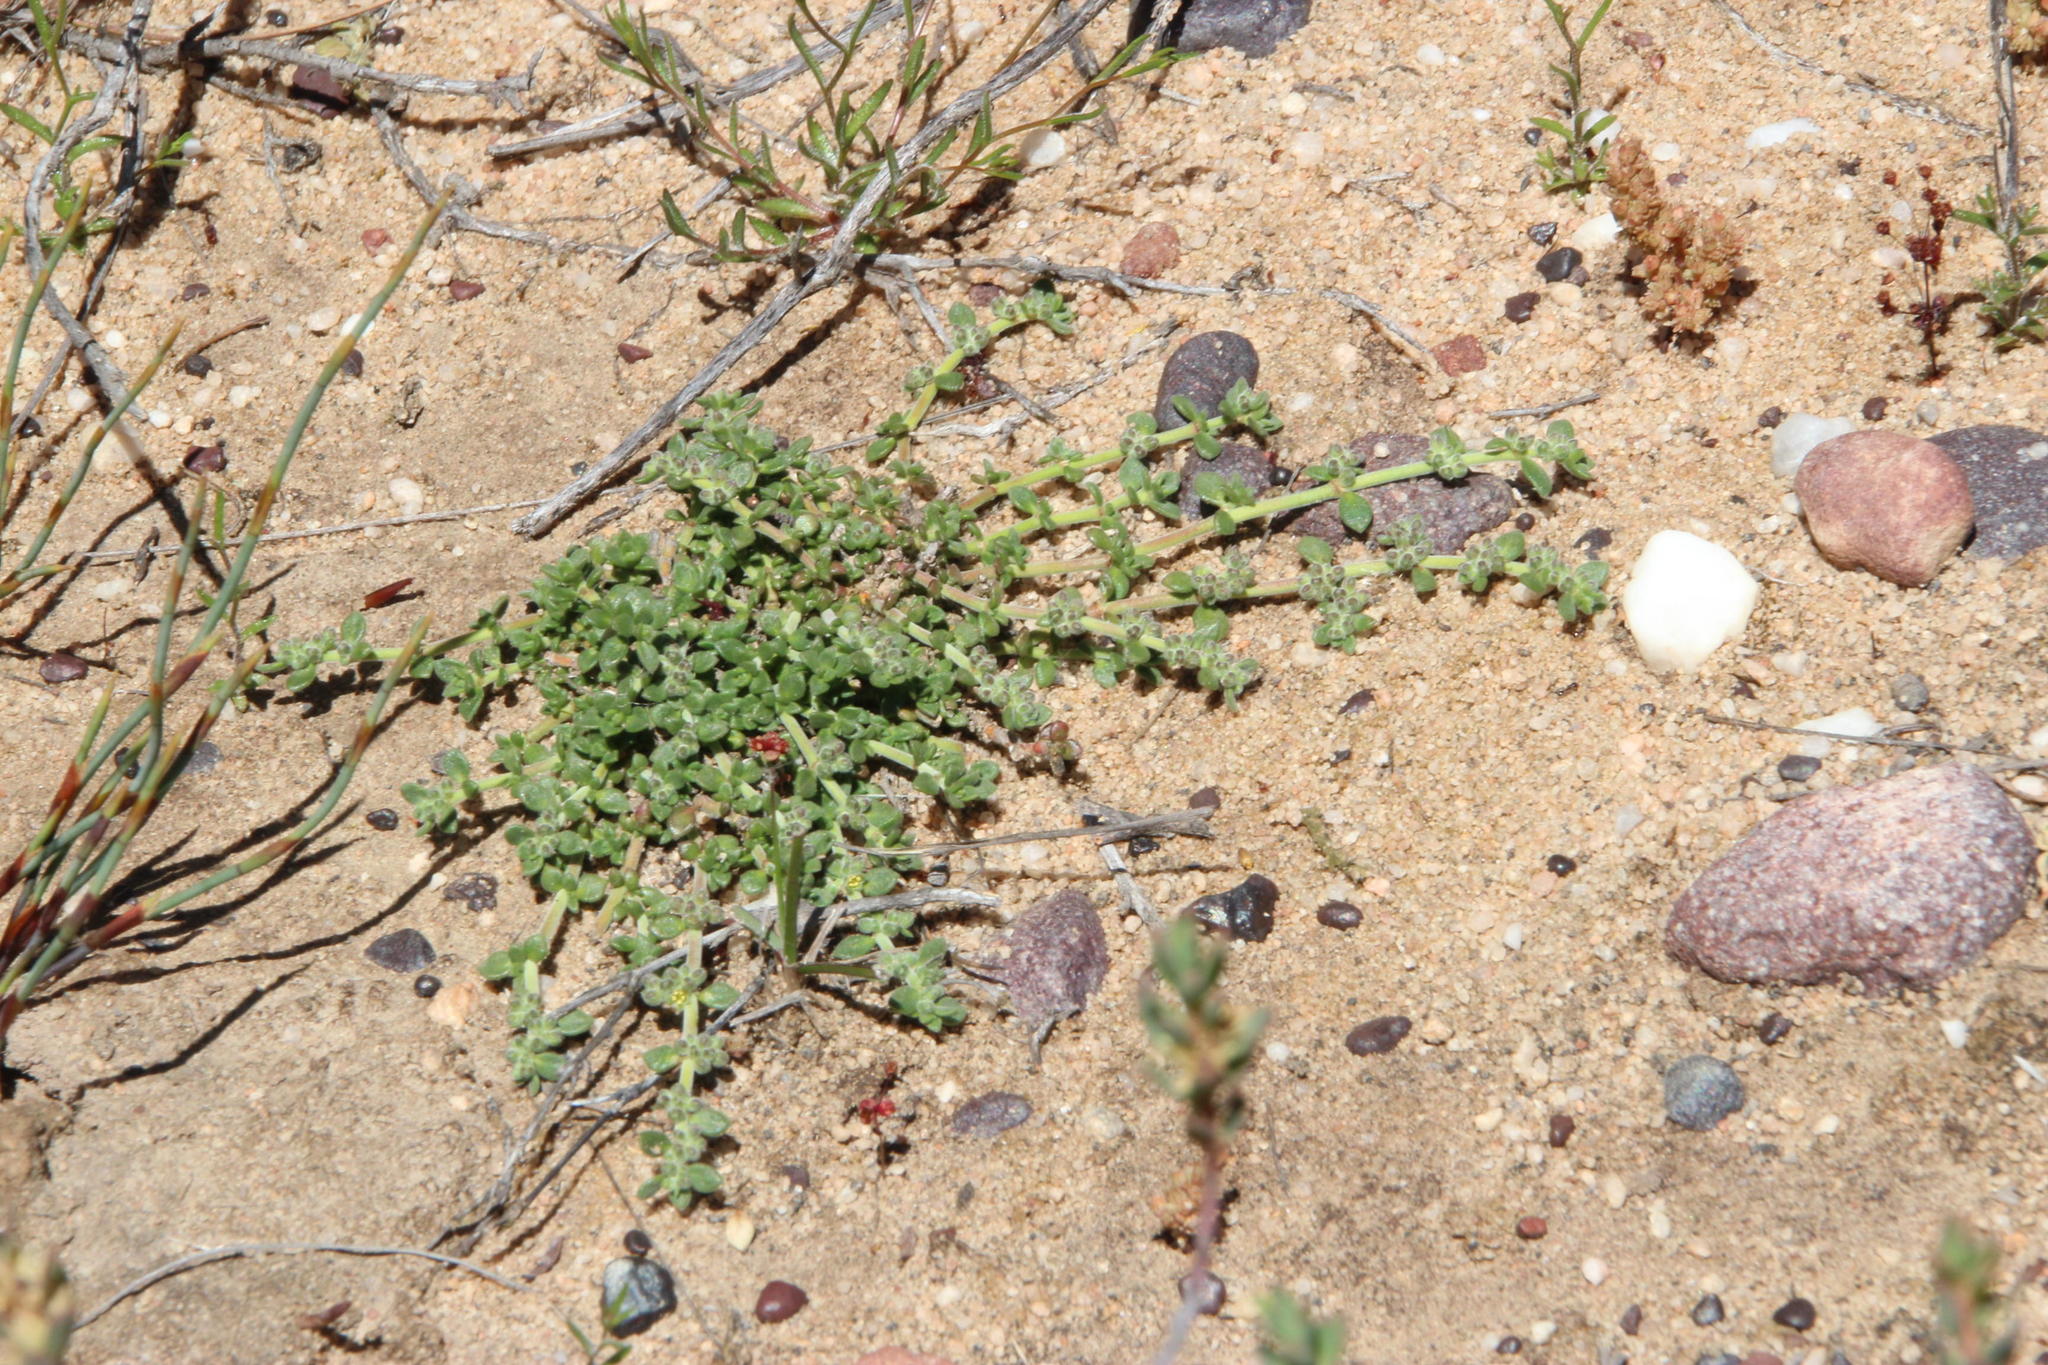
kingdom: Plantae
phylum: Tracheophyta
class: Magnoliopsida
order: Caryophyllales
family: Caryophyllaceae
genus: Herniaria
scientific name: Herniaria pearsonii
